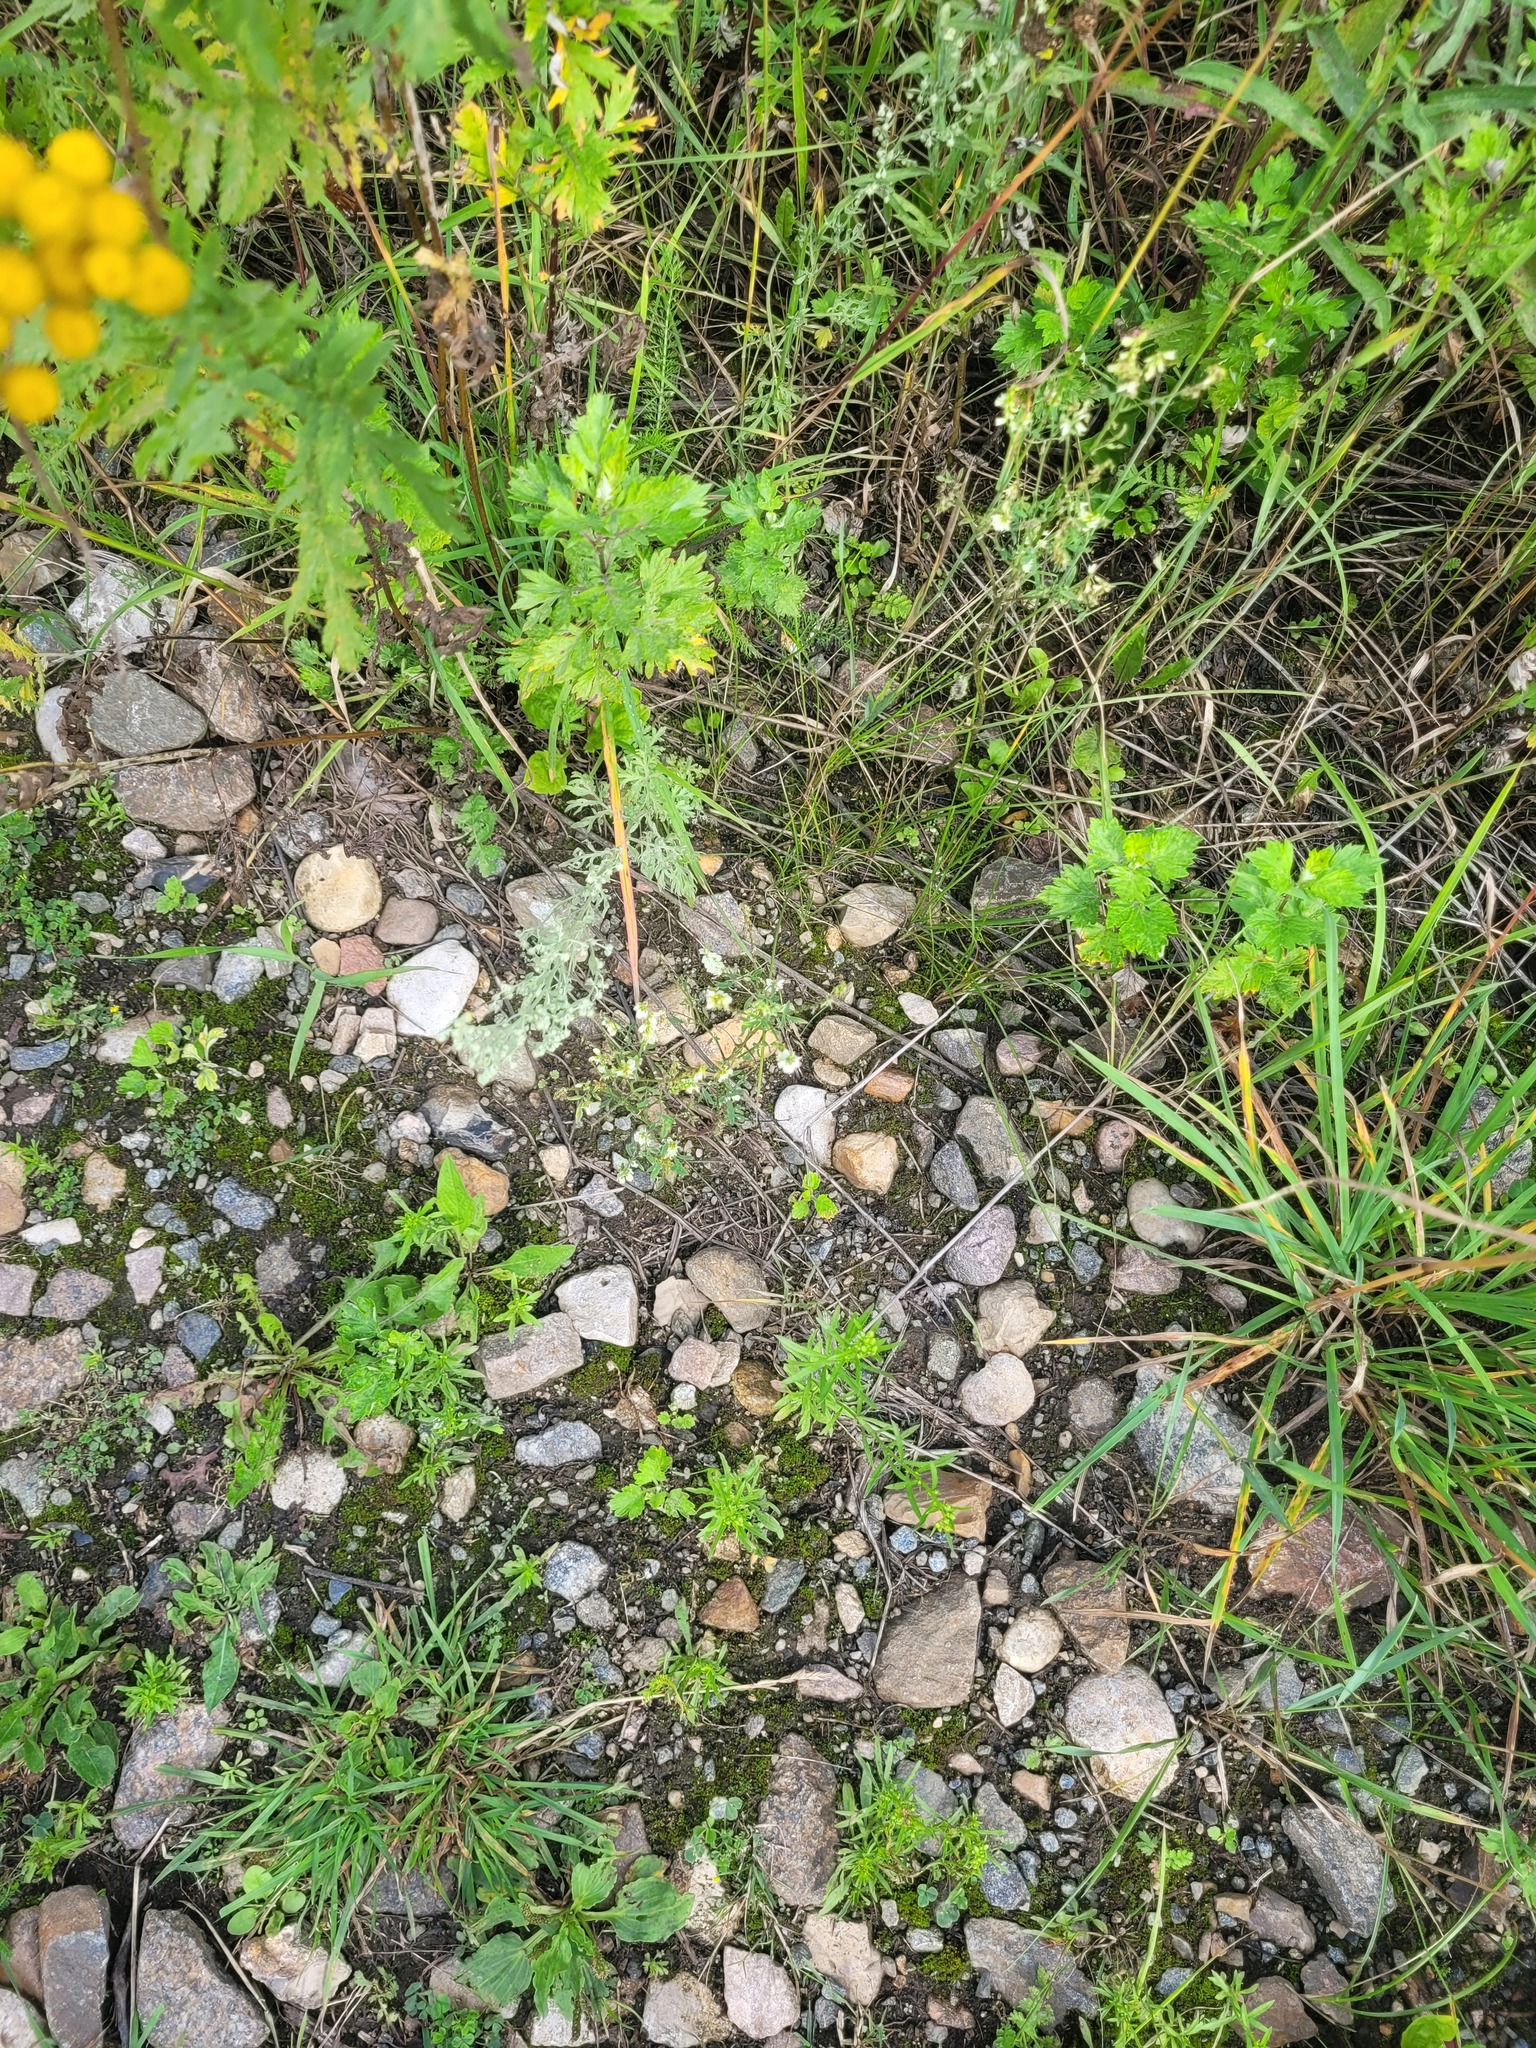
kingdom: Plantae
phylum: Tracheophyta
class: Magnoliopsida
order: Fabales
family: Fabaceae
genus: Melilotus
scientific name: Melilotus albus
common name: White melilot
